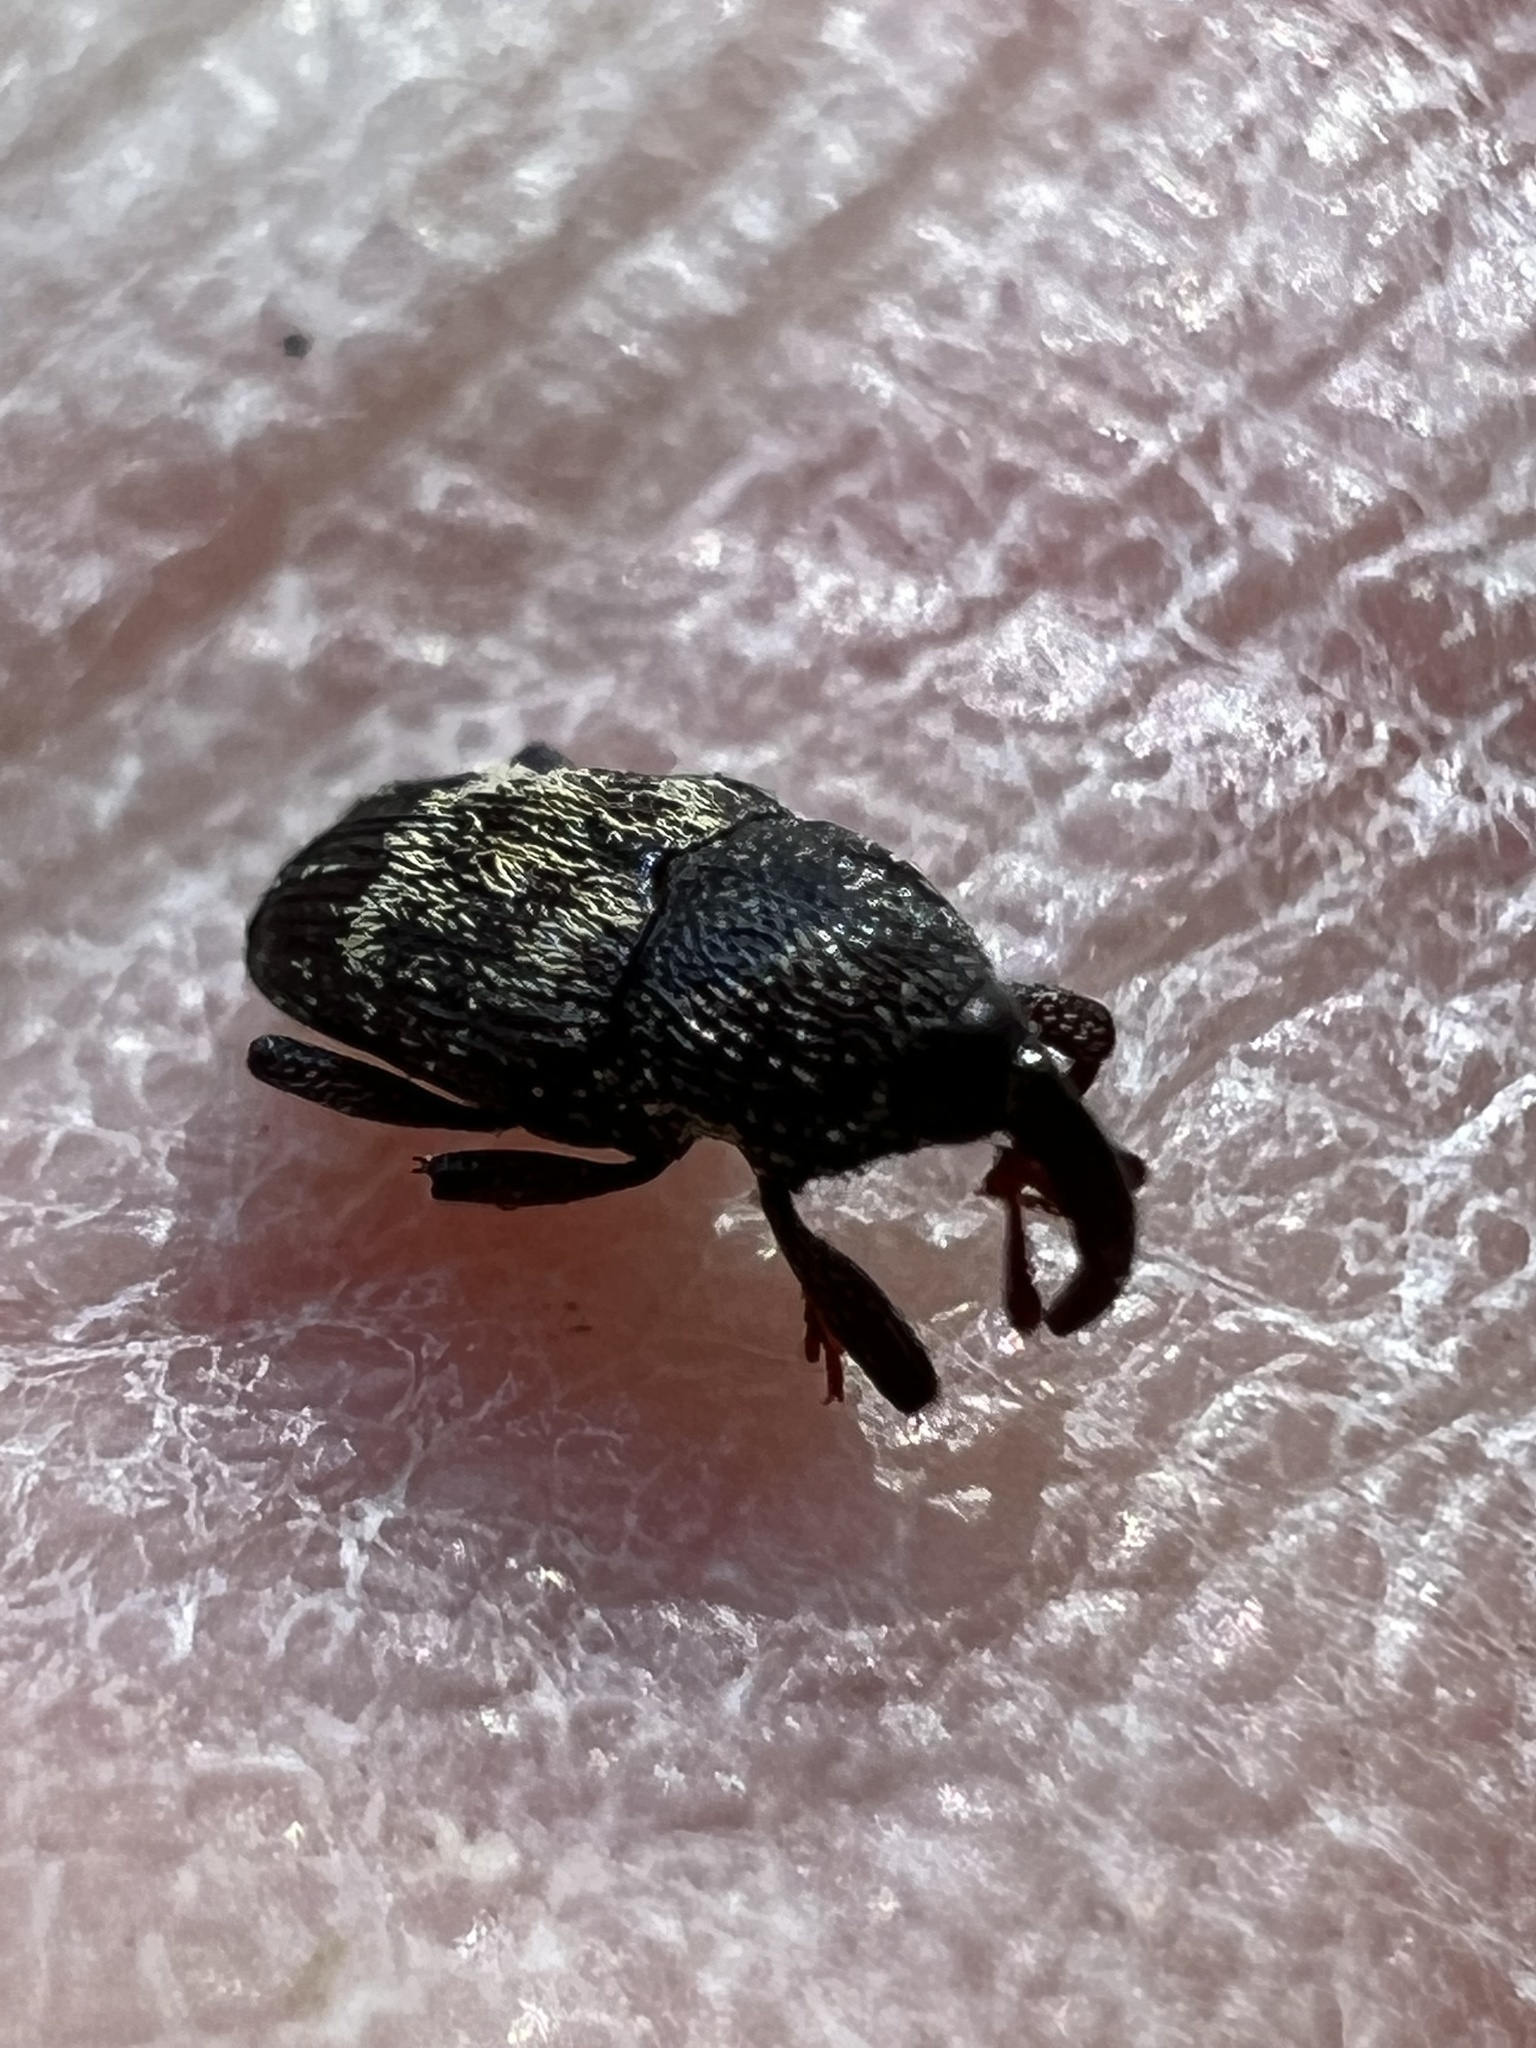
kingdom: Animalia
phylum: Arthropoda
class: Insecta
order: Coleoptera
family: Curculionidae
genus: Glyptobaris
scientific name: Glyptobaris lecontei
